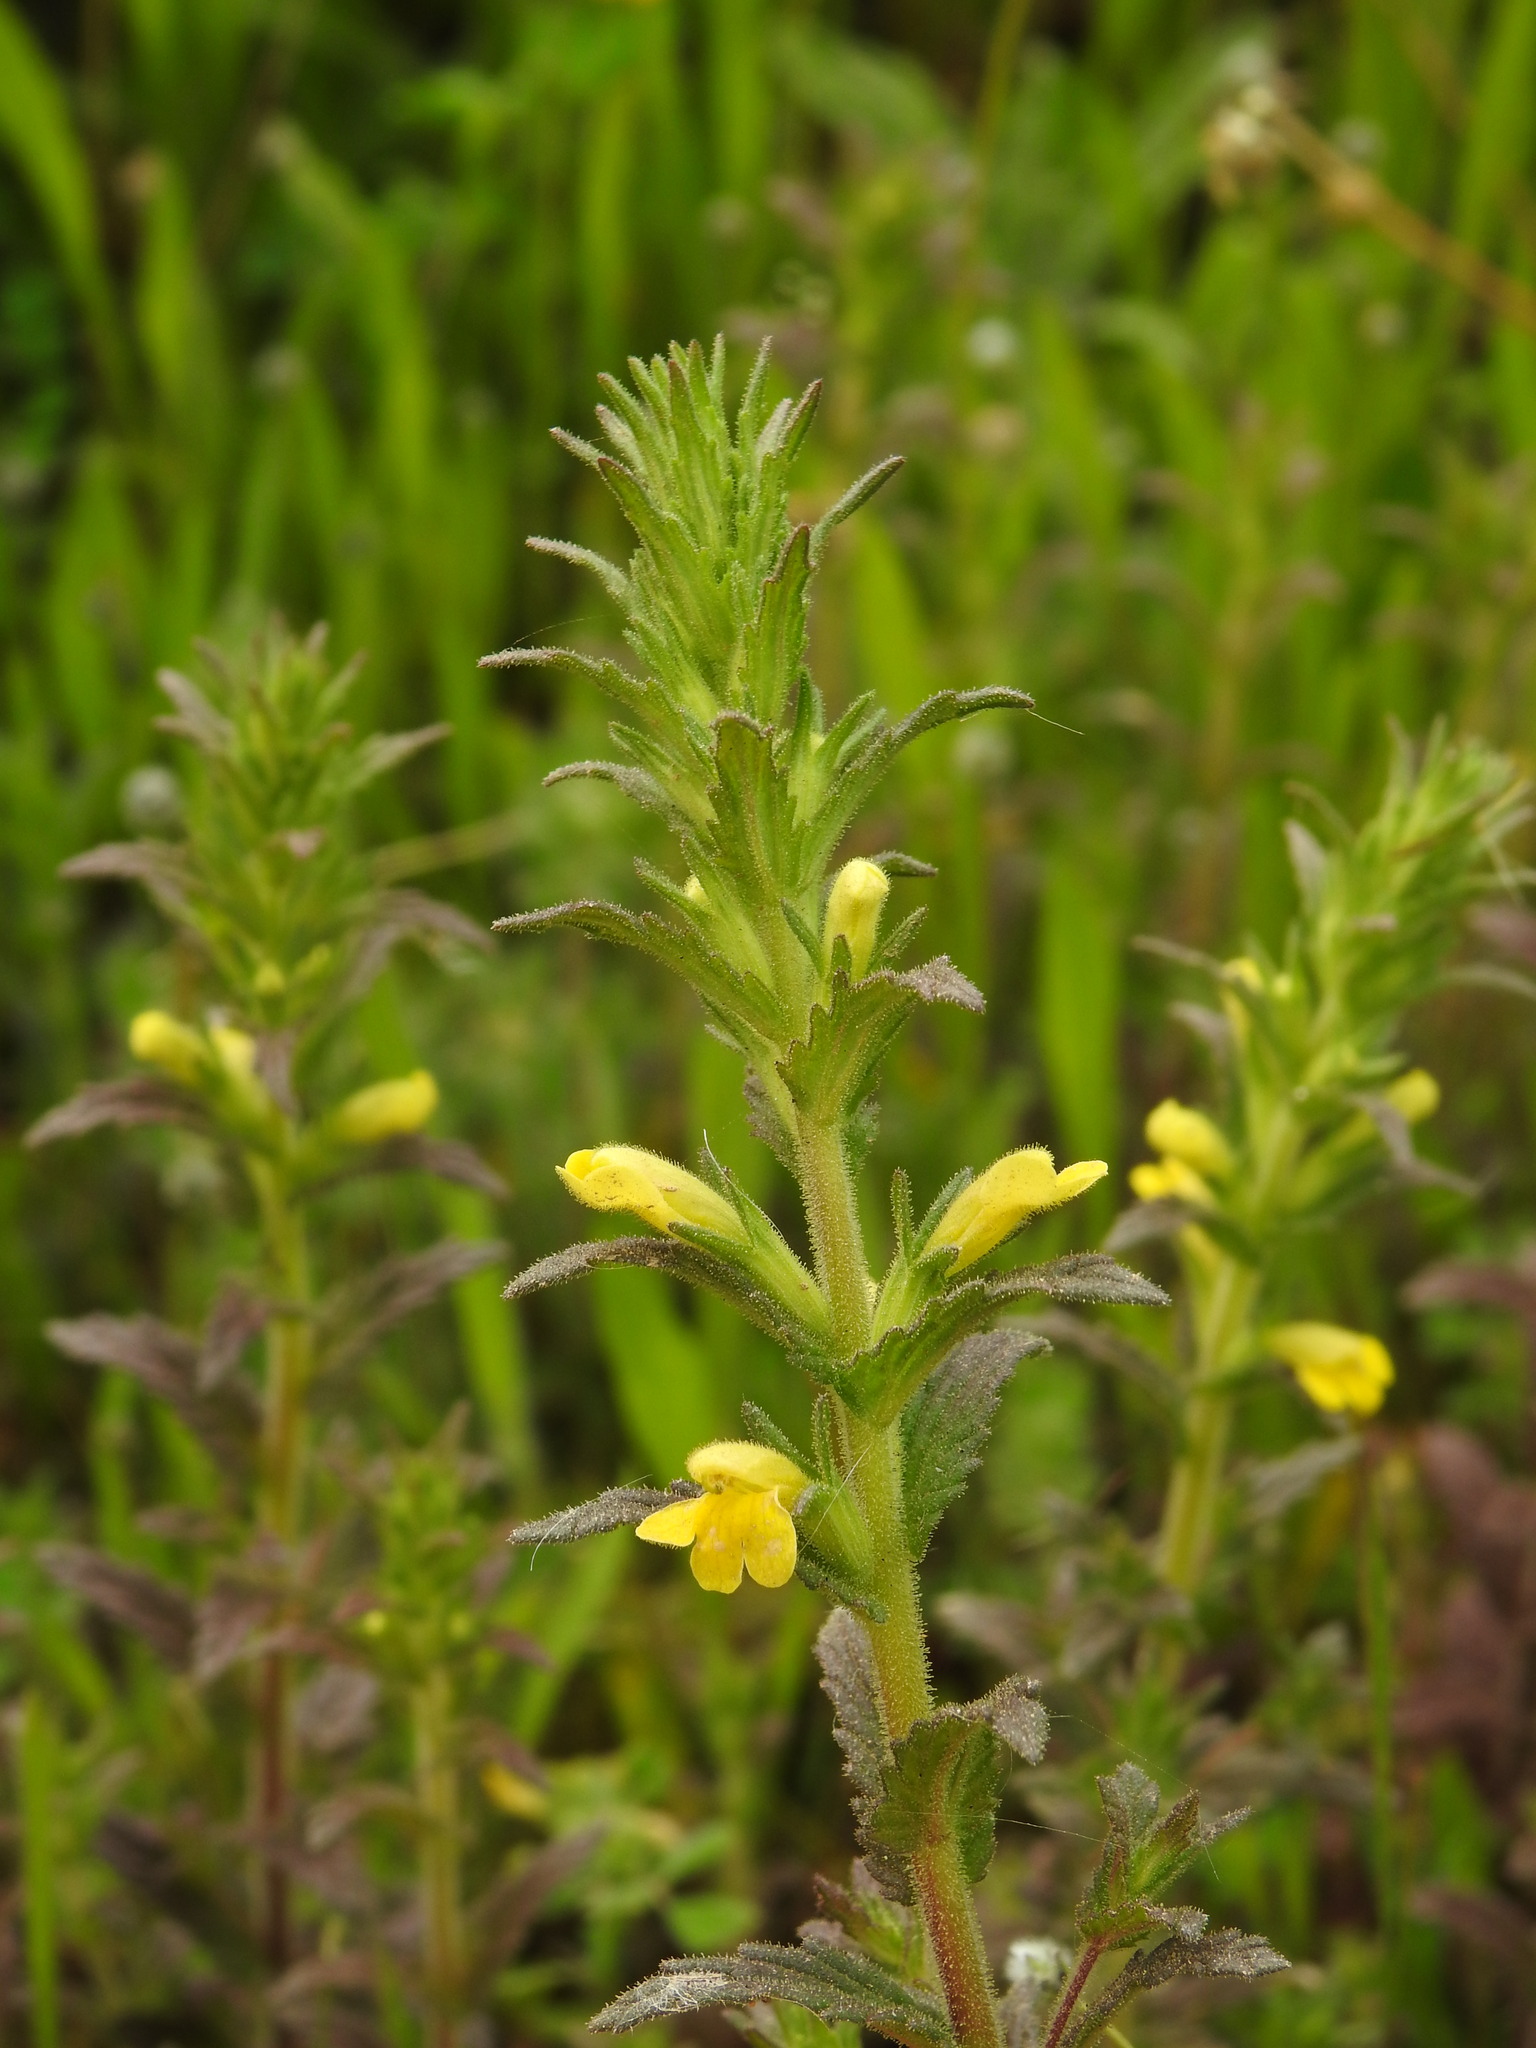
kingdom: Plantae
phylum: Tracheophyta
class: Magnoliopsida
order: Lamiales
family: Orobanchaceae
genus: Bellardia
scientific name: Bellardia viscosa
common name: Sticky parentucellia
